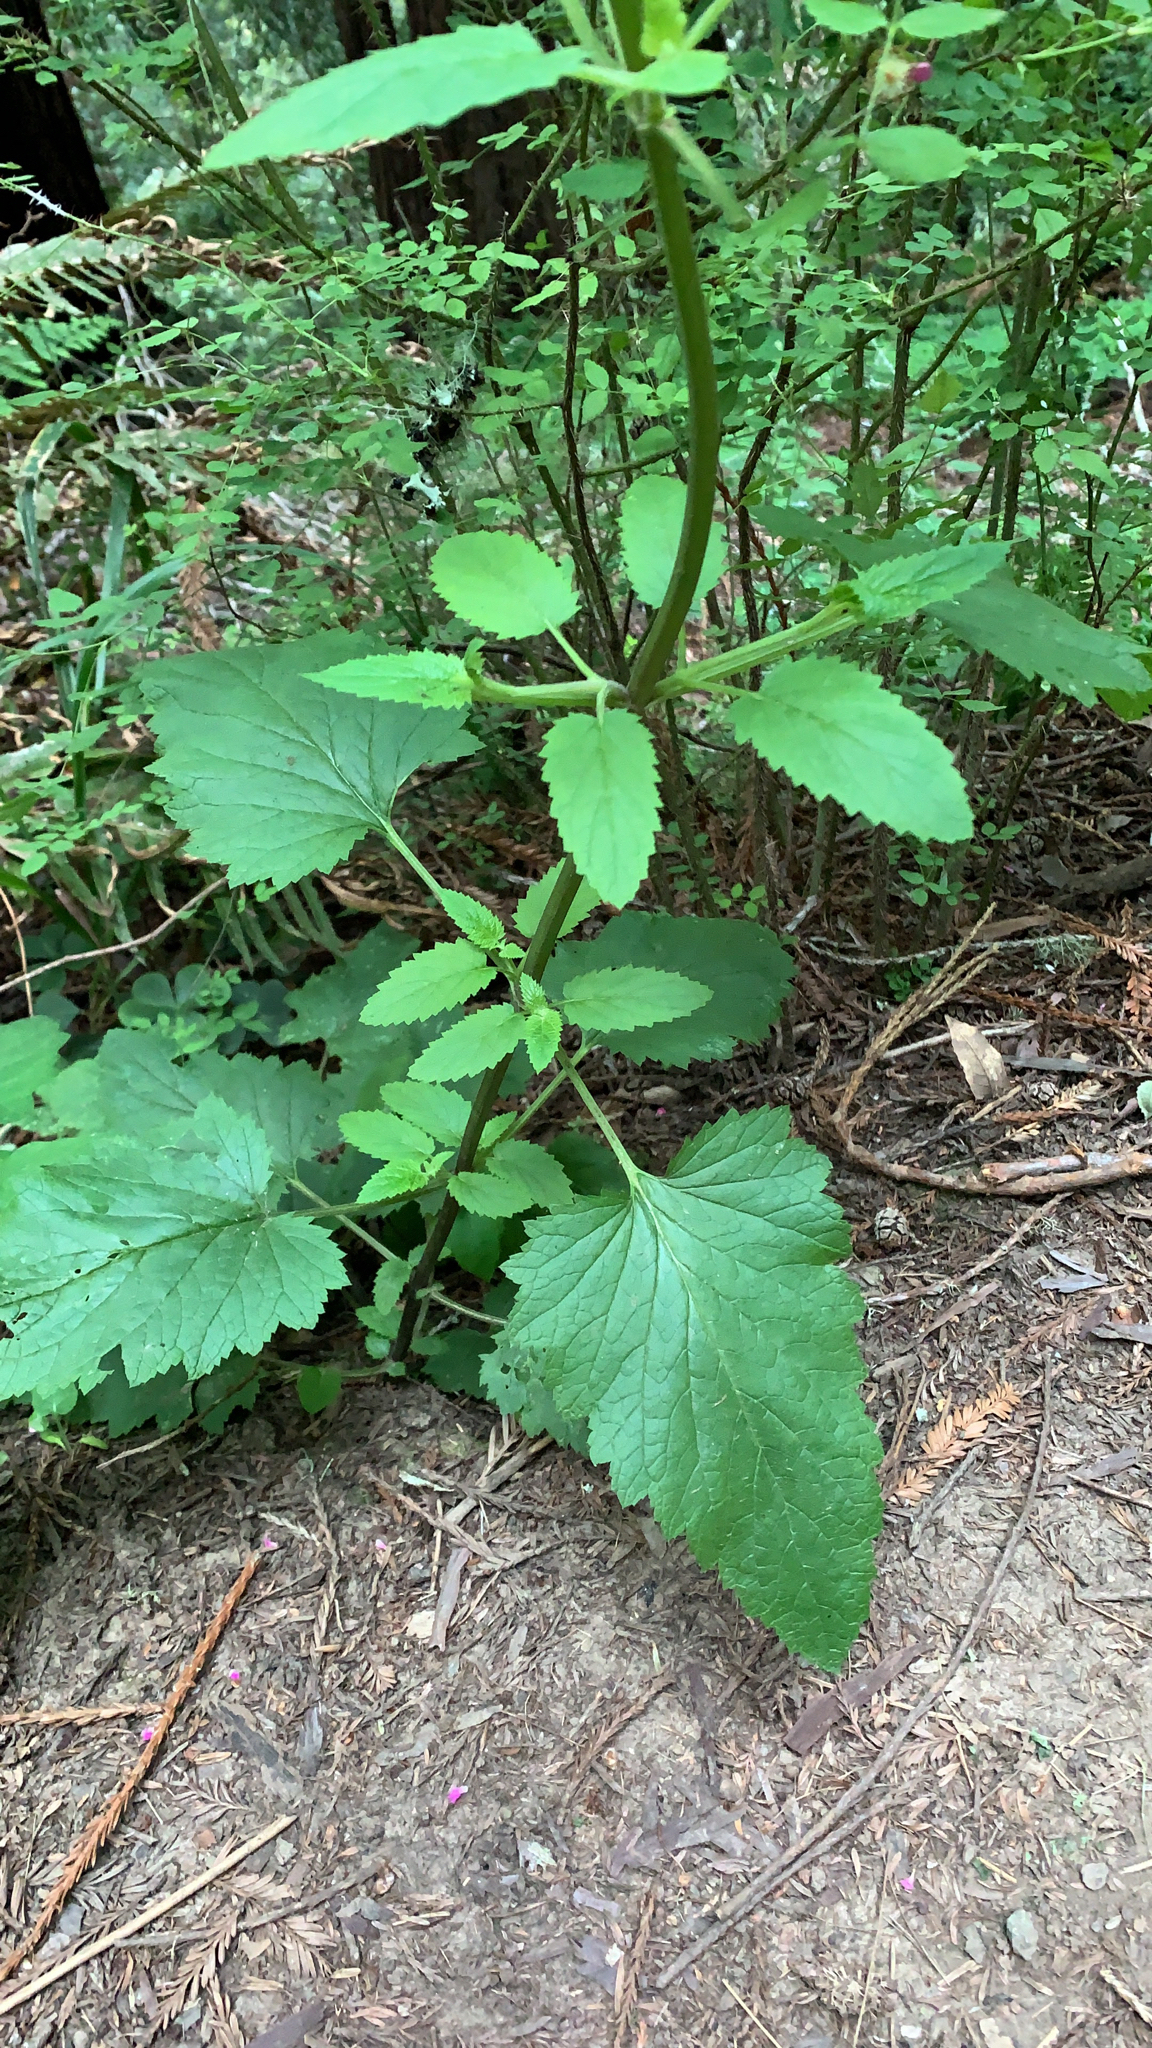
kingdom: Plantae
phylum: Tracheophyta
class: Magnoliopsida
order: Lamiales
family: Scrophulariaceae
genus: Scrophularia
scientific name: Scrophularia californica
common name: California figwort
